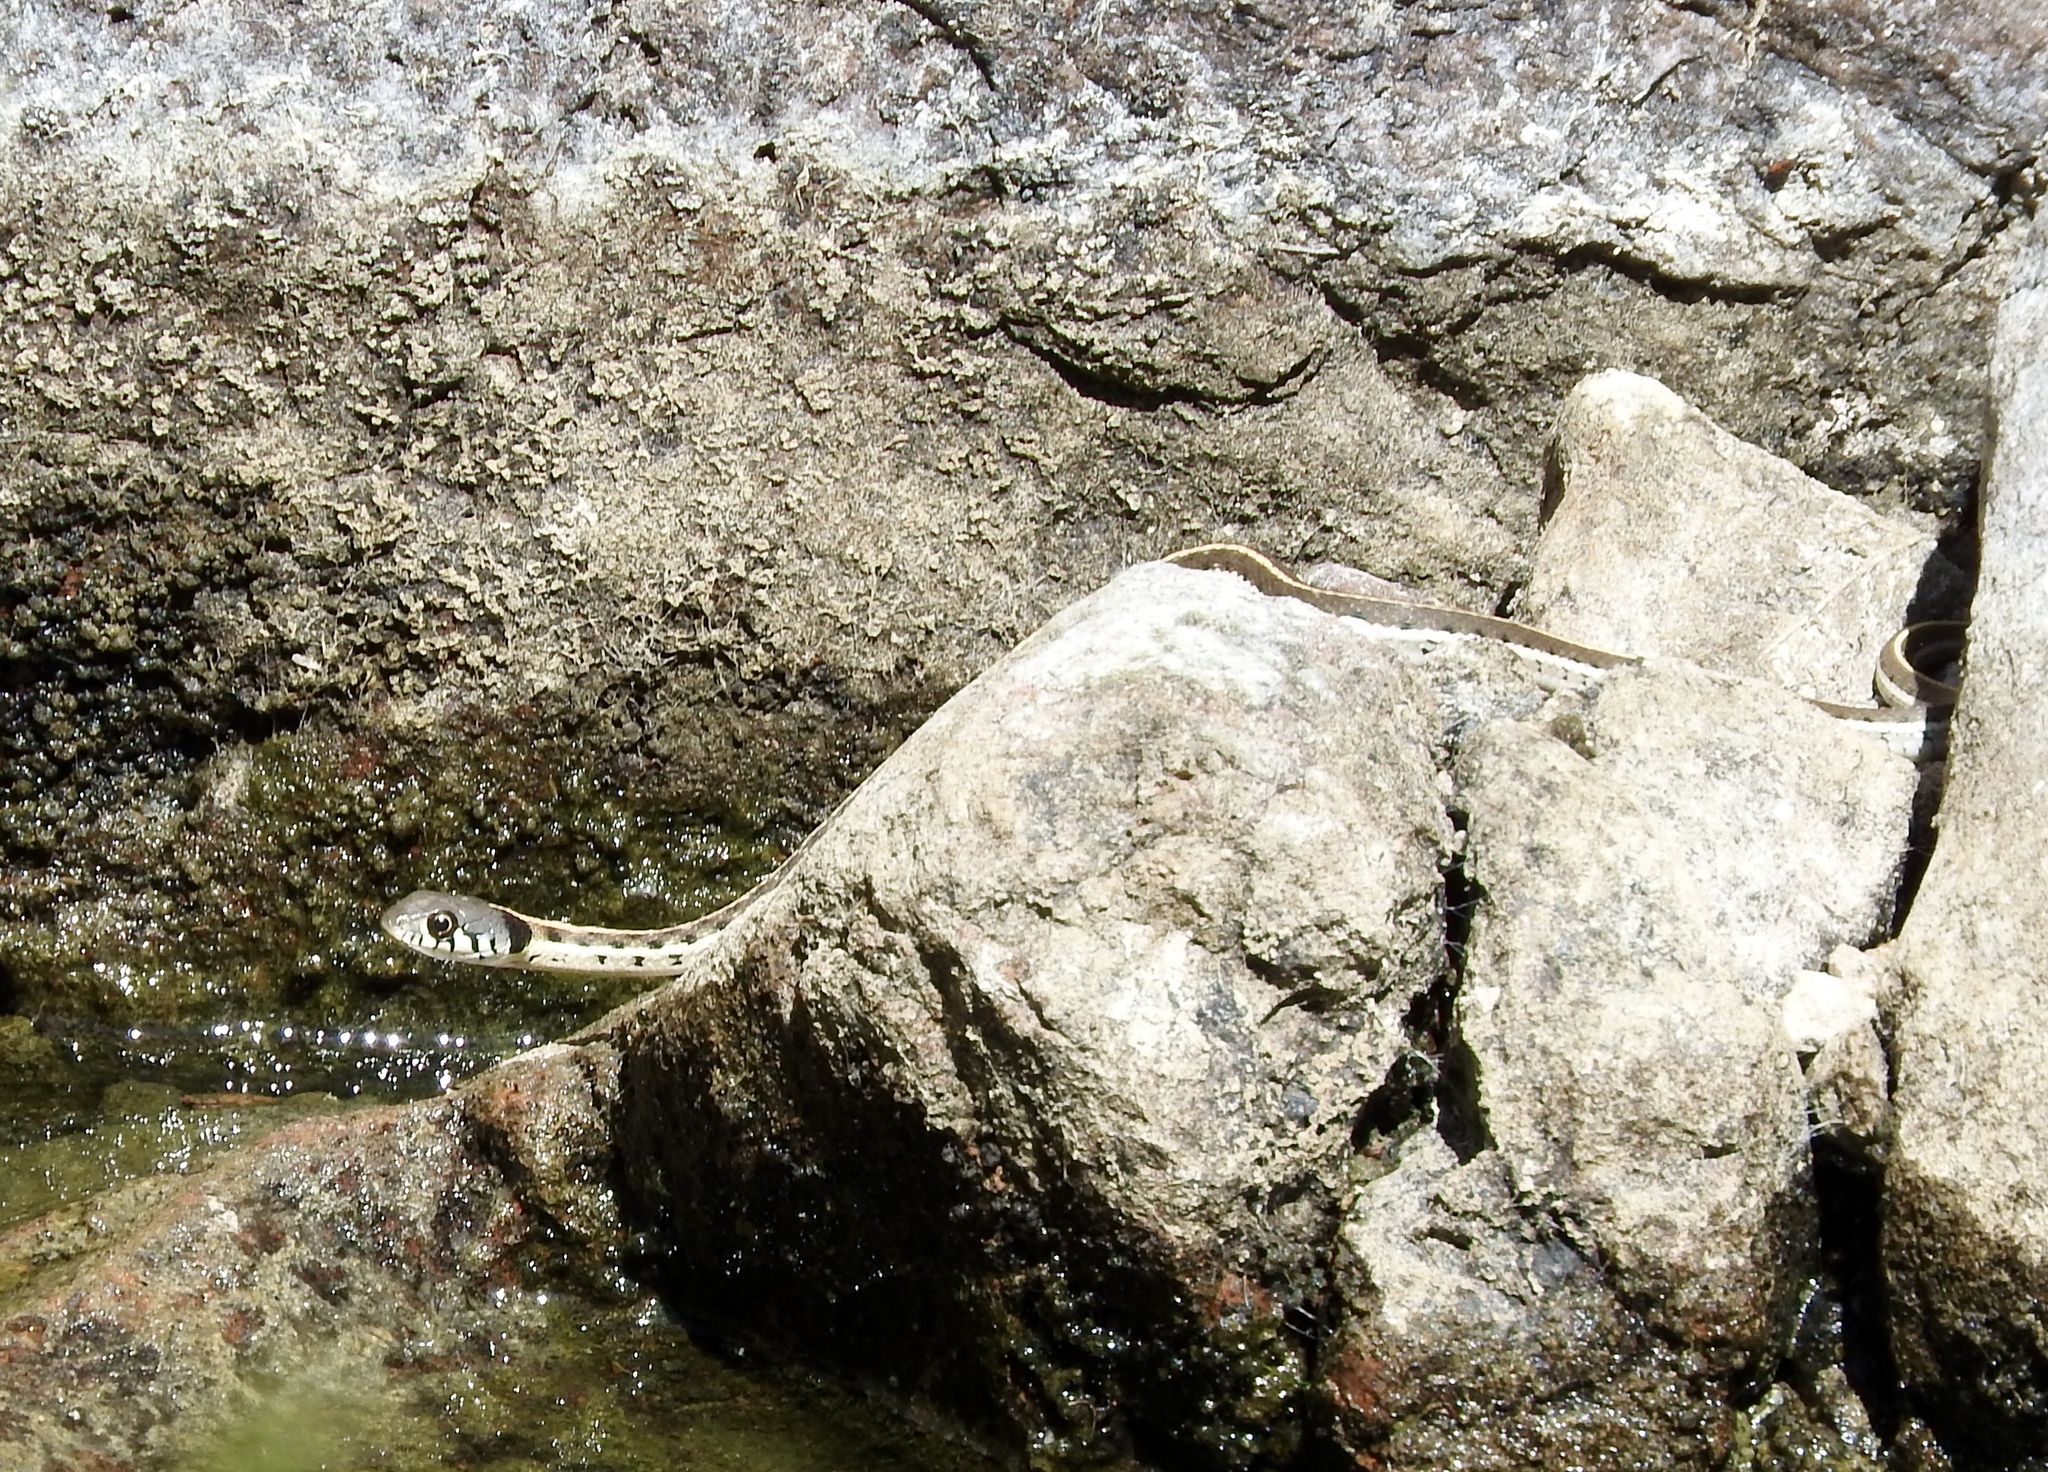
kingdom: Animalia
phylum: Chordata
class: Squamata
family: Colubridae
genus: Thamnophis
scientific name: Thamnophis cyrtopsis
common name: Black-necked gartersnake
